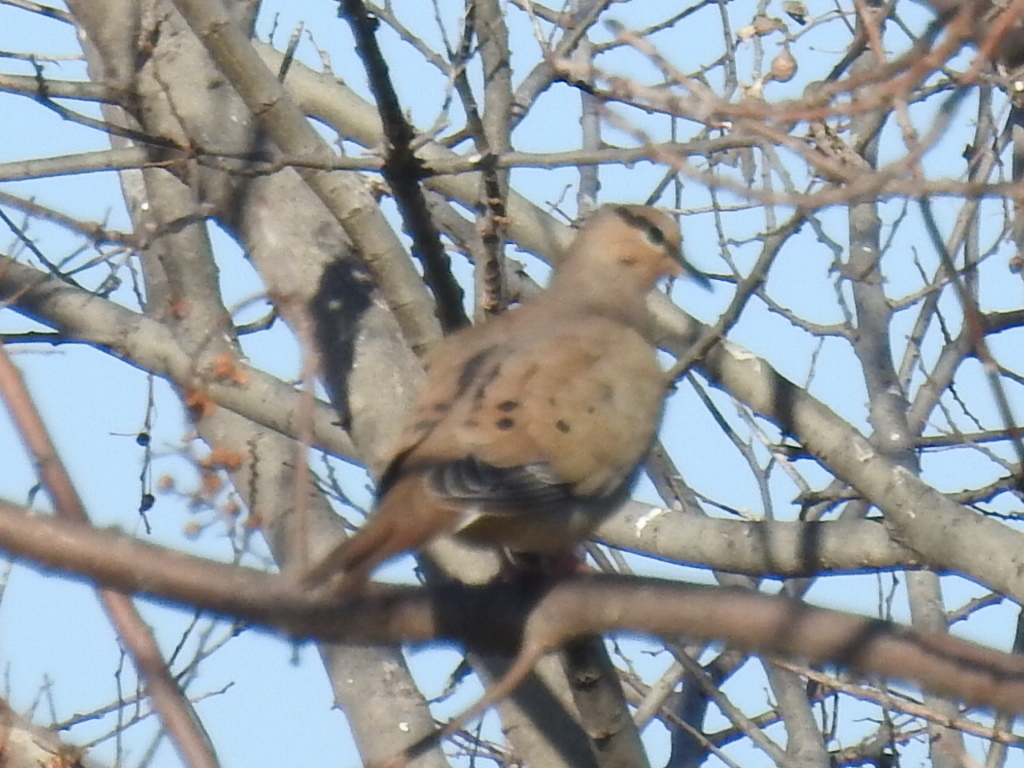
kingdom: Animalia
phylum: Chordata
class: Aves
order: Columbiformes
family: Columbidae
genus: Zenaida
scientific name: Zenaida macroura
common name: Mourning dove
